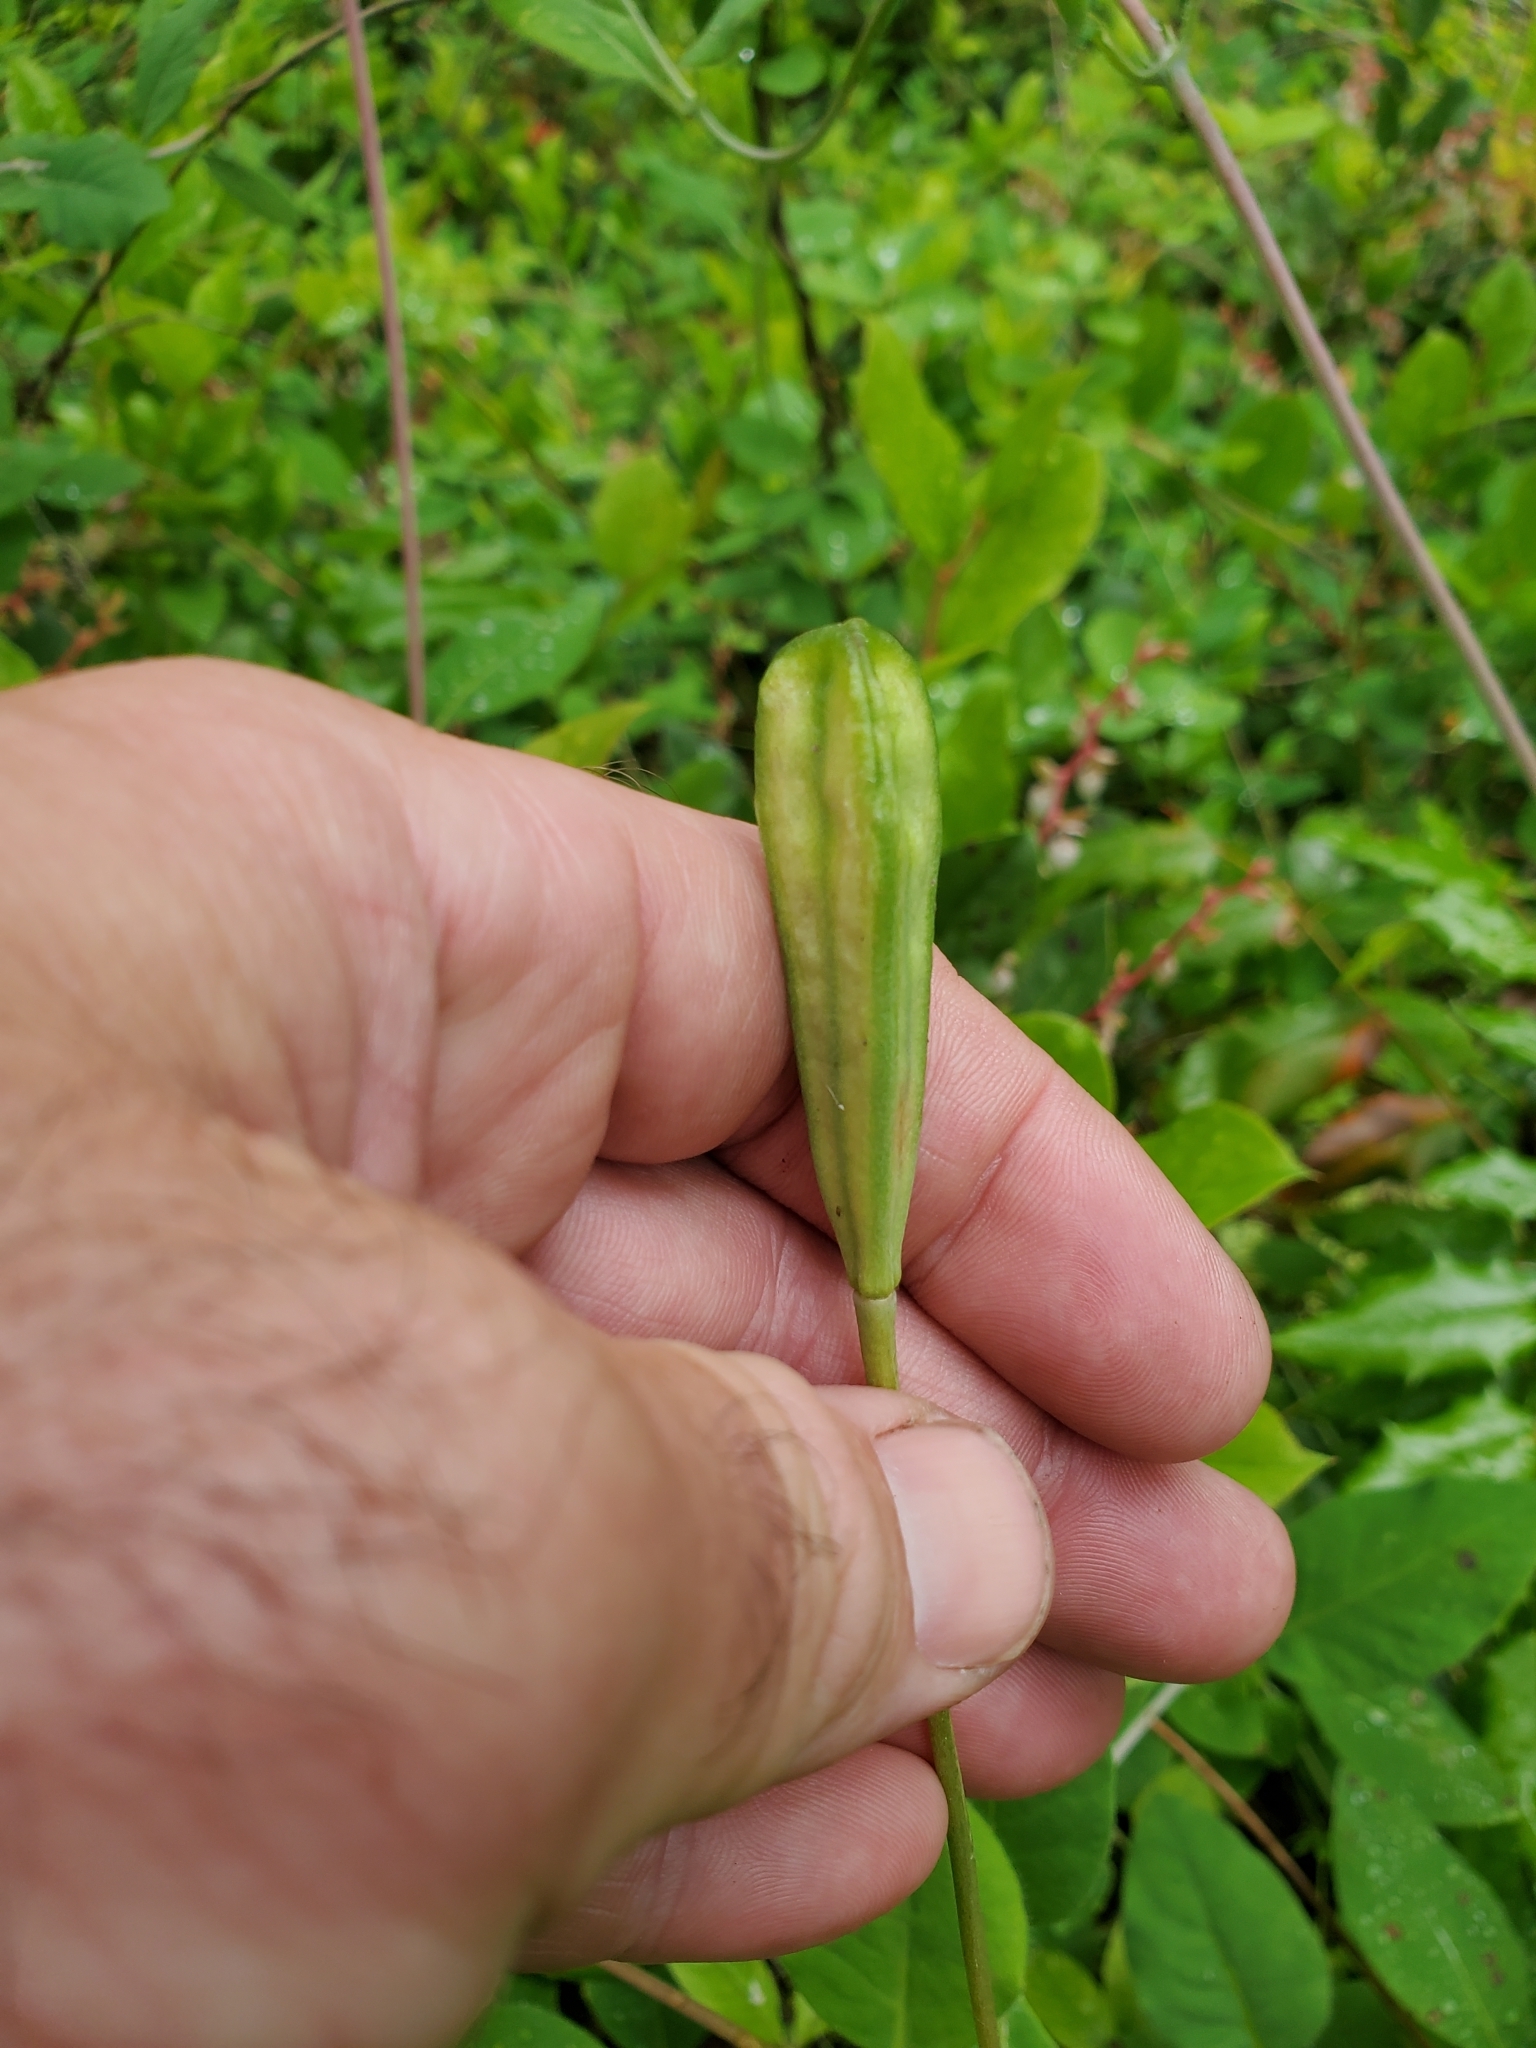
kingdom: Plantae
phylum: Tracheophyta
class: Liliopsida
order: Liliales
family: Liliaceae
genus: Erythronium
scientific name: Erythronium oregonum
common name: Giant adder's-tongue
